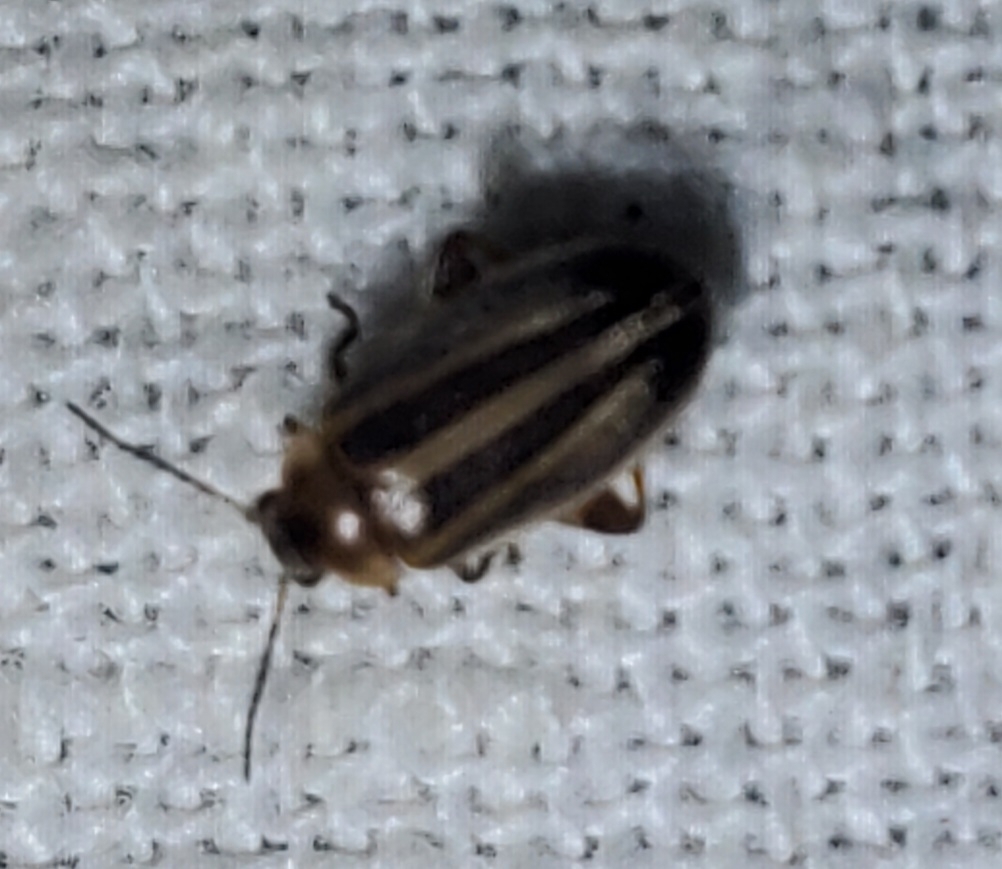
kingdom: Animalia
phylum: Arthropoda
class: Insecta
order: Coleoptera
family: Scirtidae
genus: Scirtes
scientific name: Scirtes oblongus
